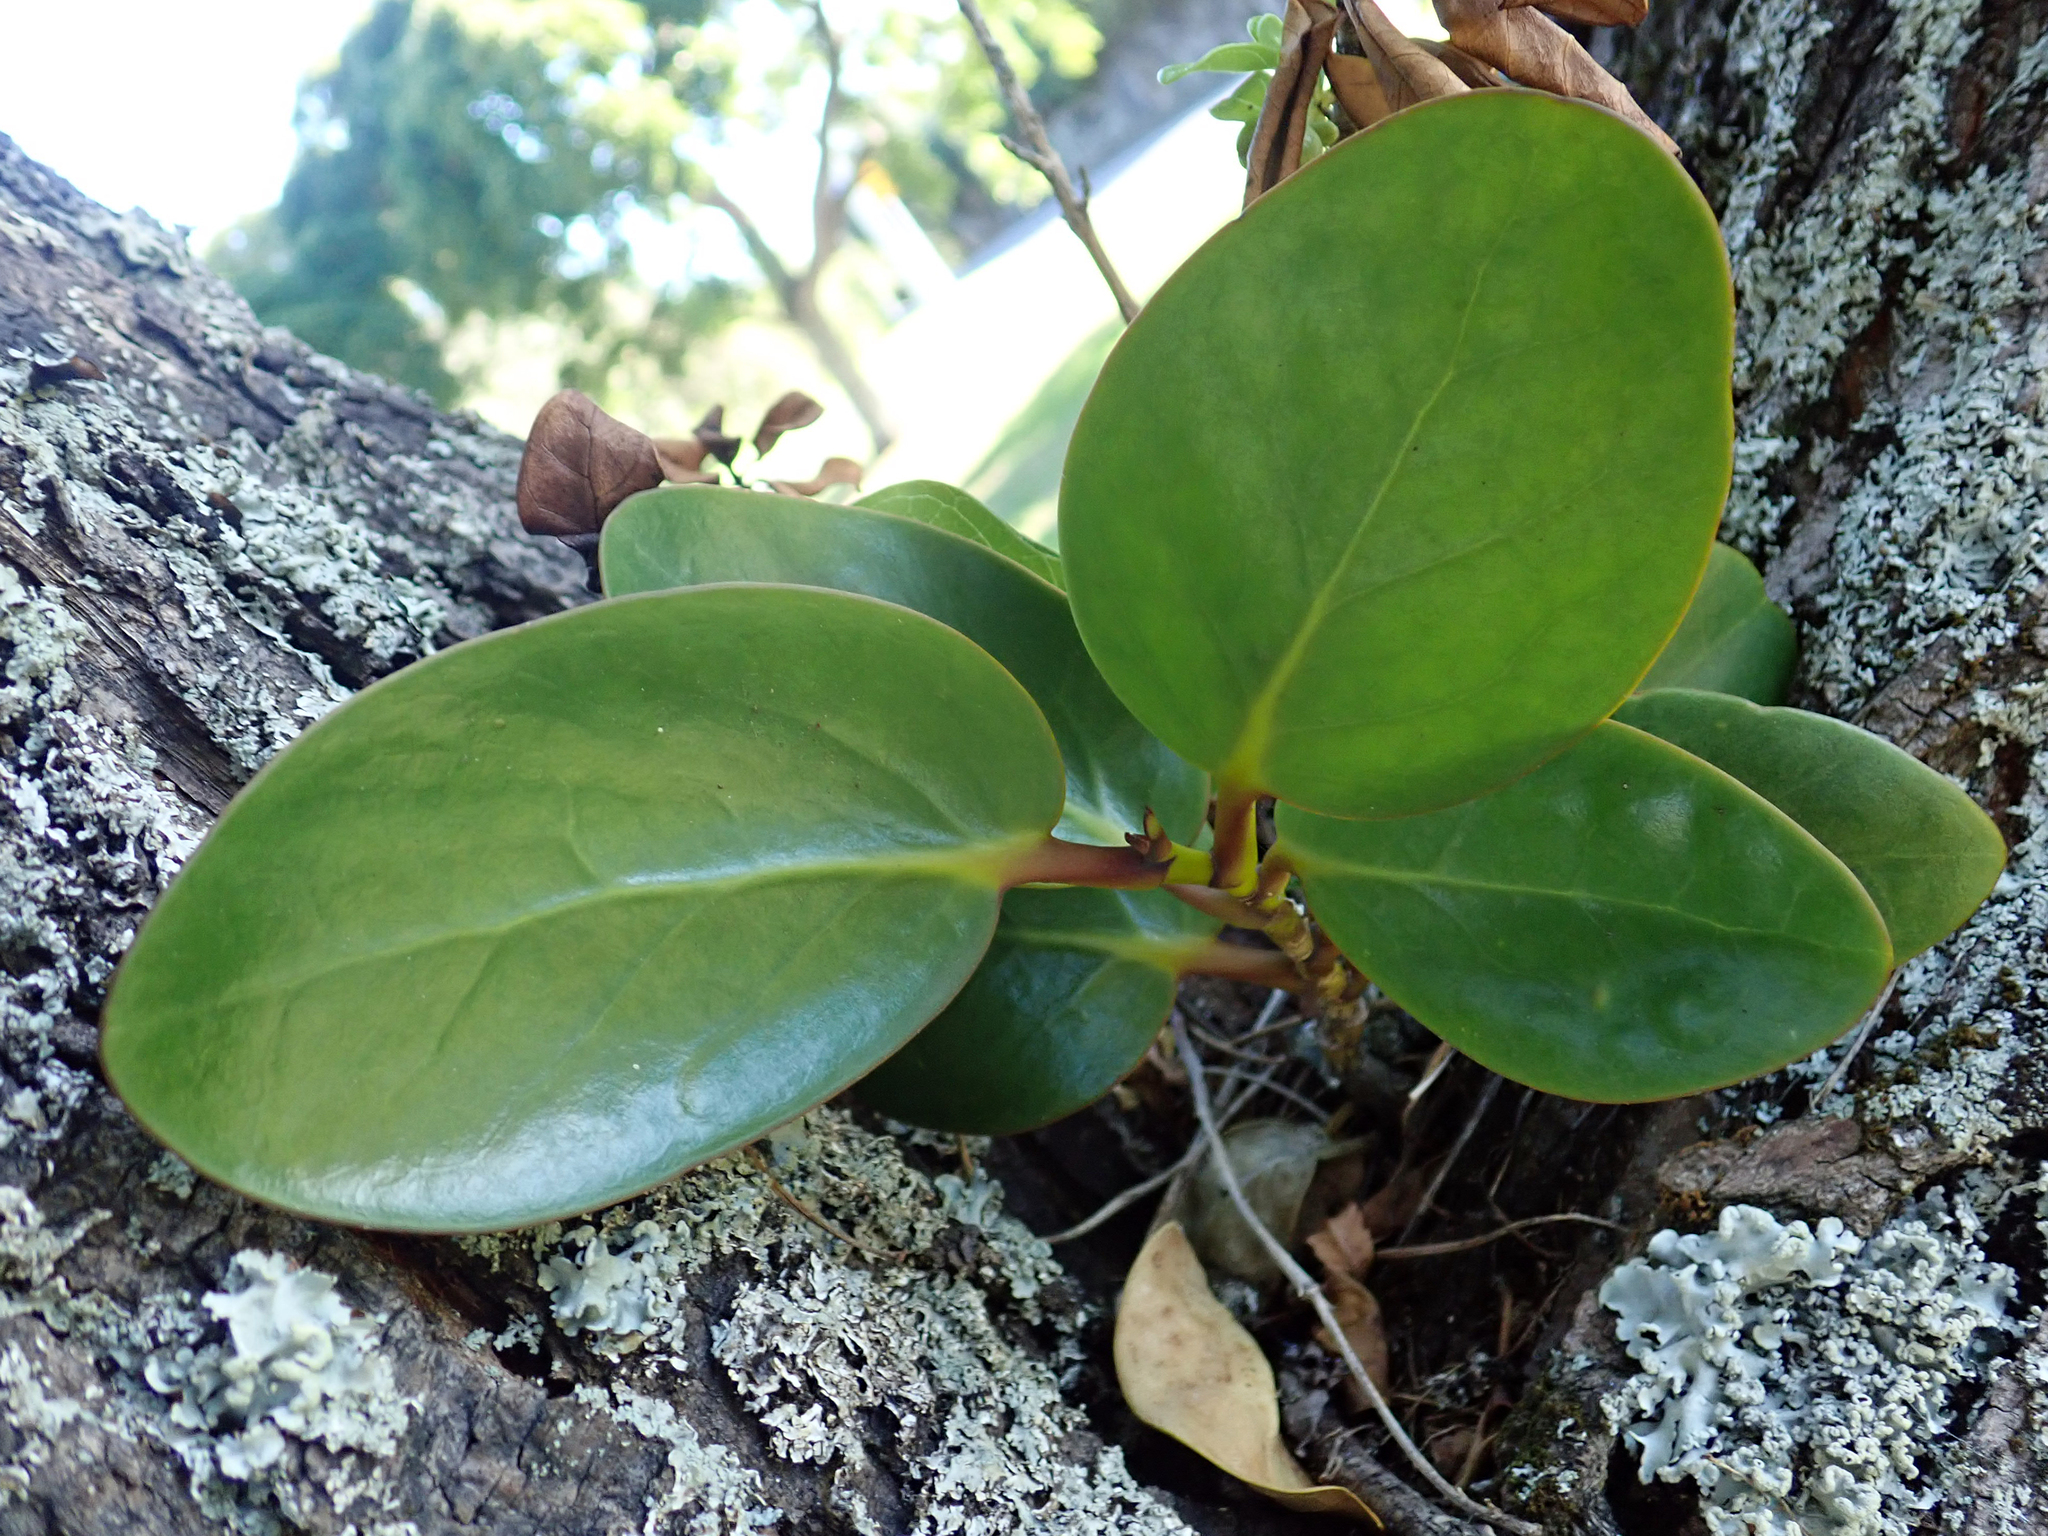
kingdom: Plantae
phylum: Tracheophyta
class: Magnoliopsida
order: Apiales
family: Griseliniaceae
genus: Griselinia
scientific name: Griselinia lucida
